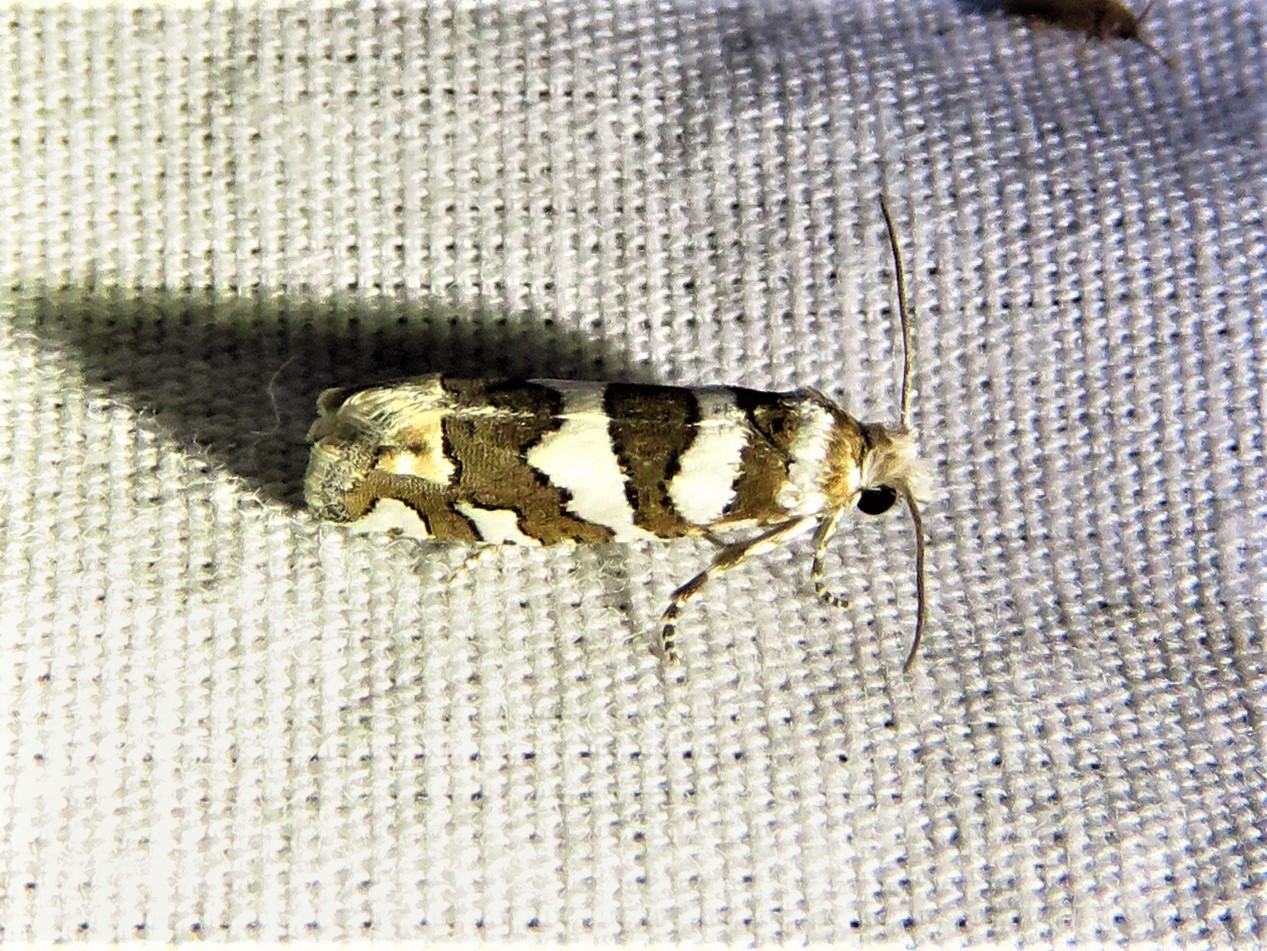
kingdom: Animalia
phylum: Arthropoda
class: Insecta
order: Lepidoptera
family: Tortricidae
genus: Pelochrista
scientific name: Pelochrista robinsonana
